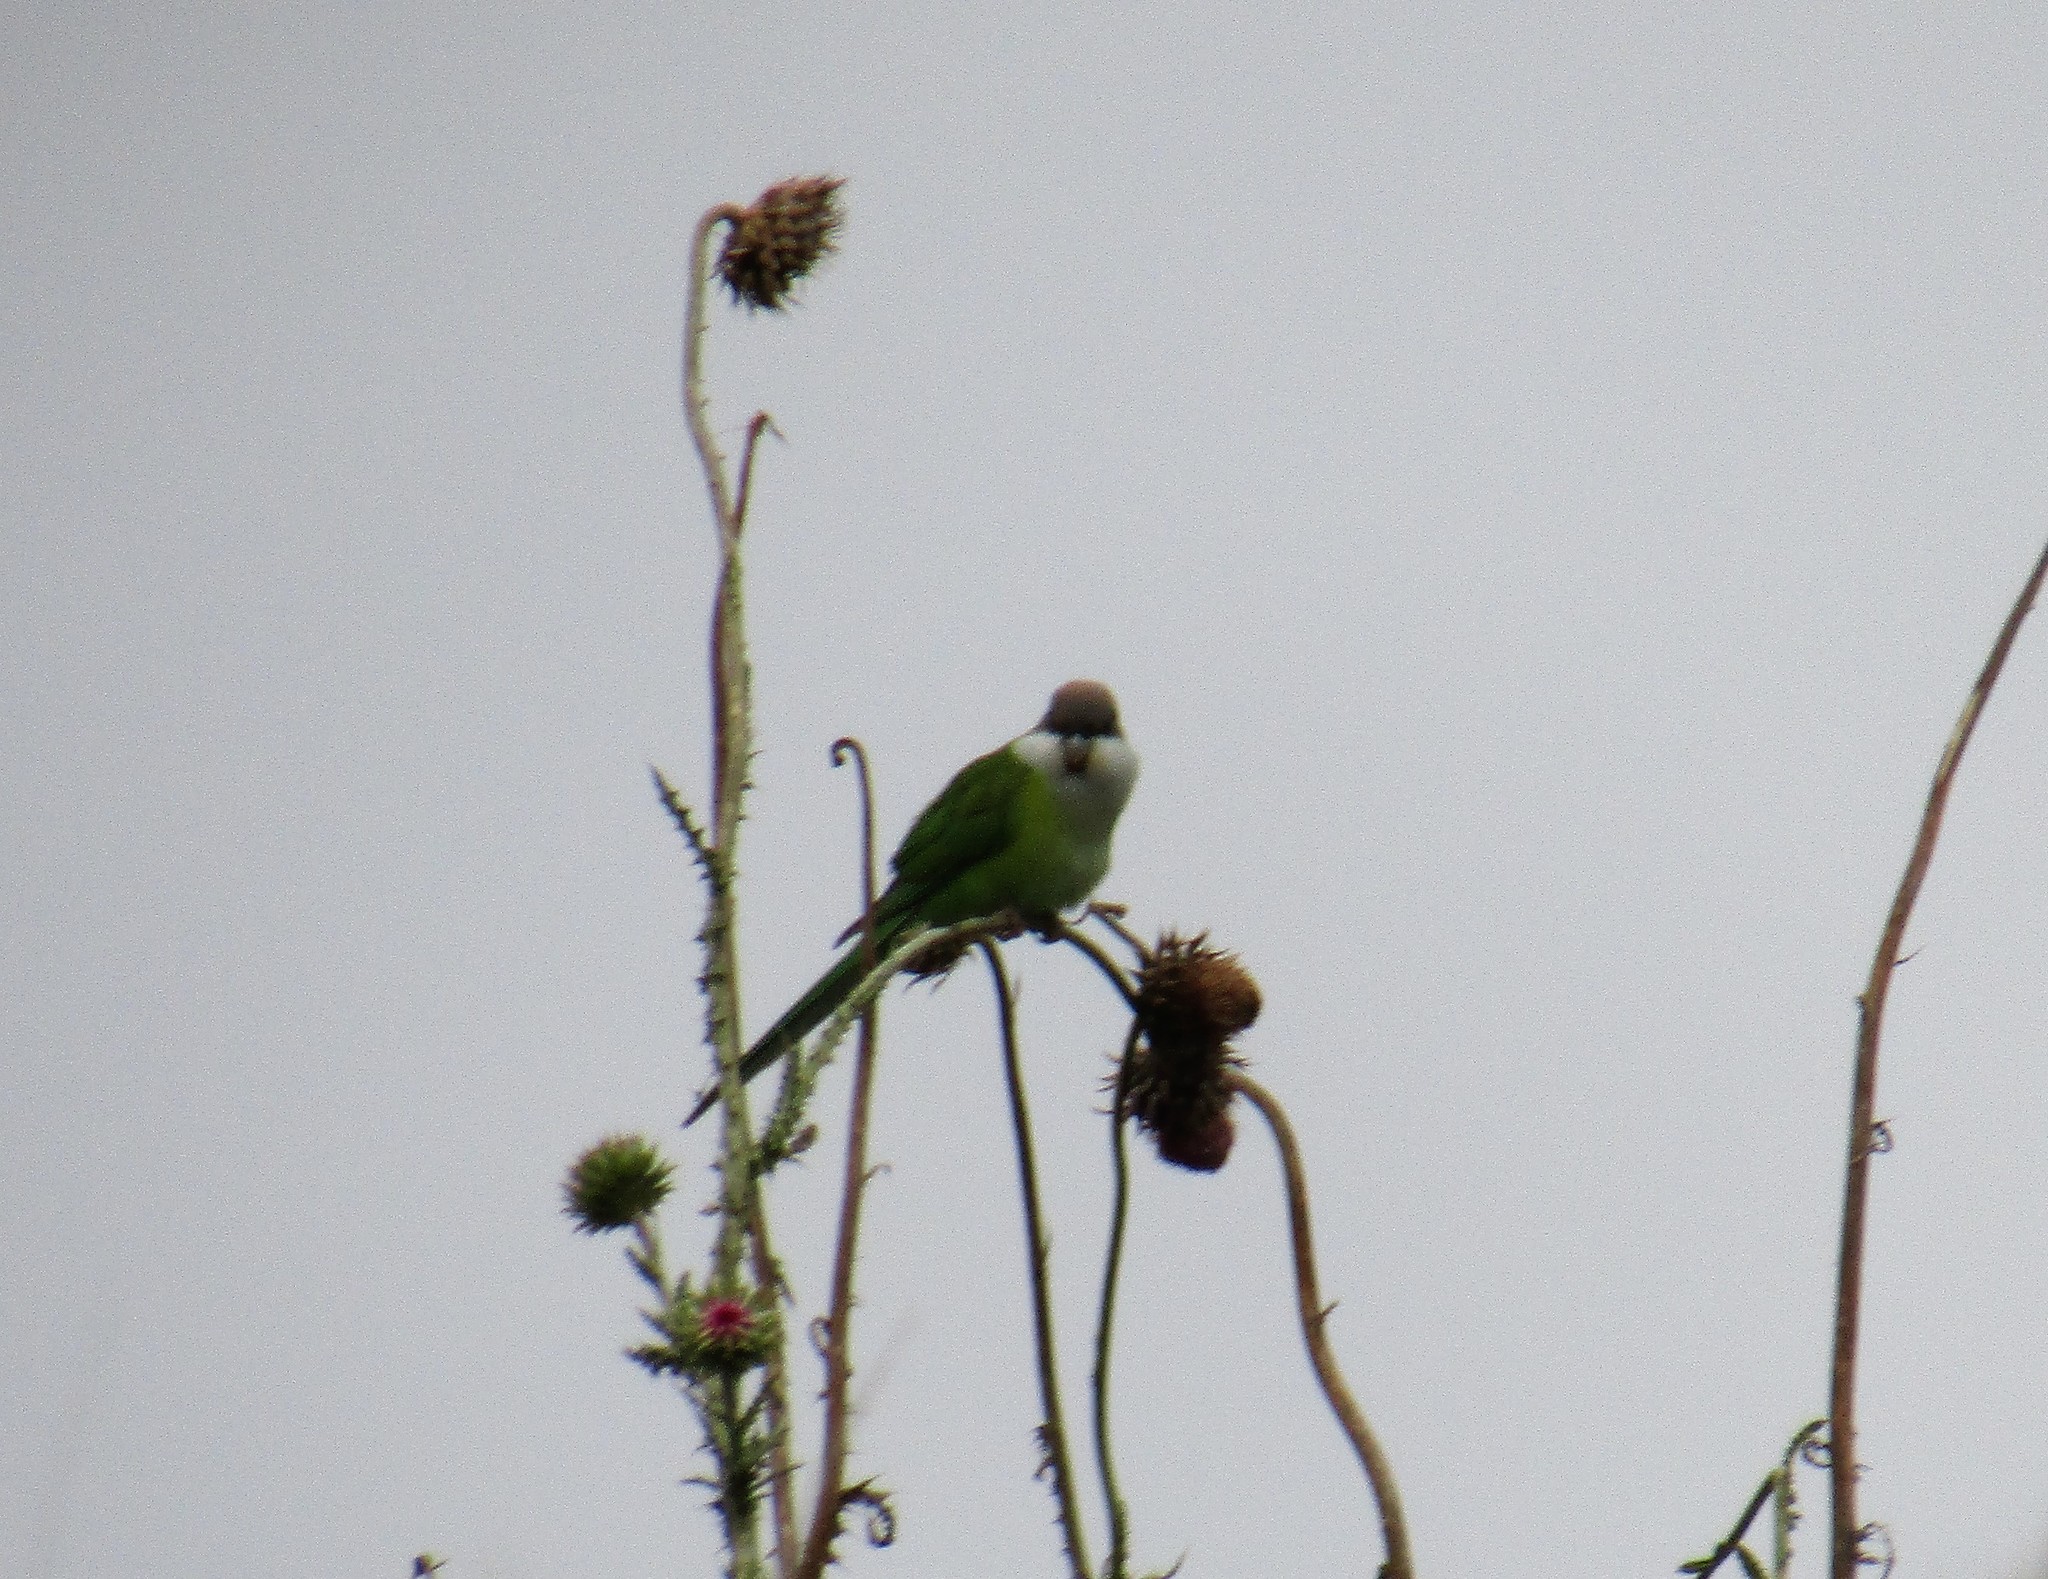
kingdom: Animalia
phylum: Chordata
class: Aves
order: Psittaciformes
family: Psittacidae
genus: Psilopsiagon
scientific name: Psilopsiagon aymara
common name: Grey-hooded parakeet
